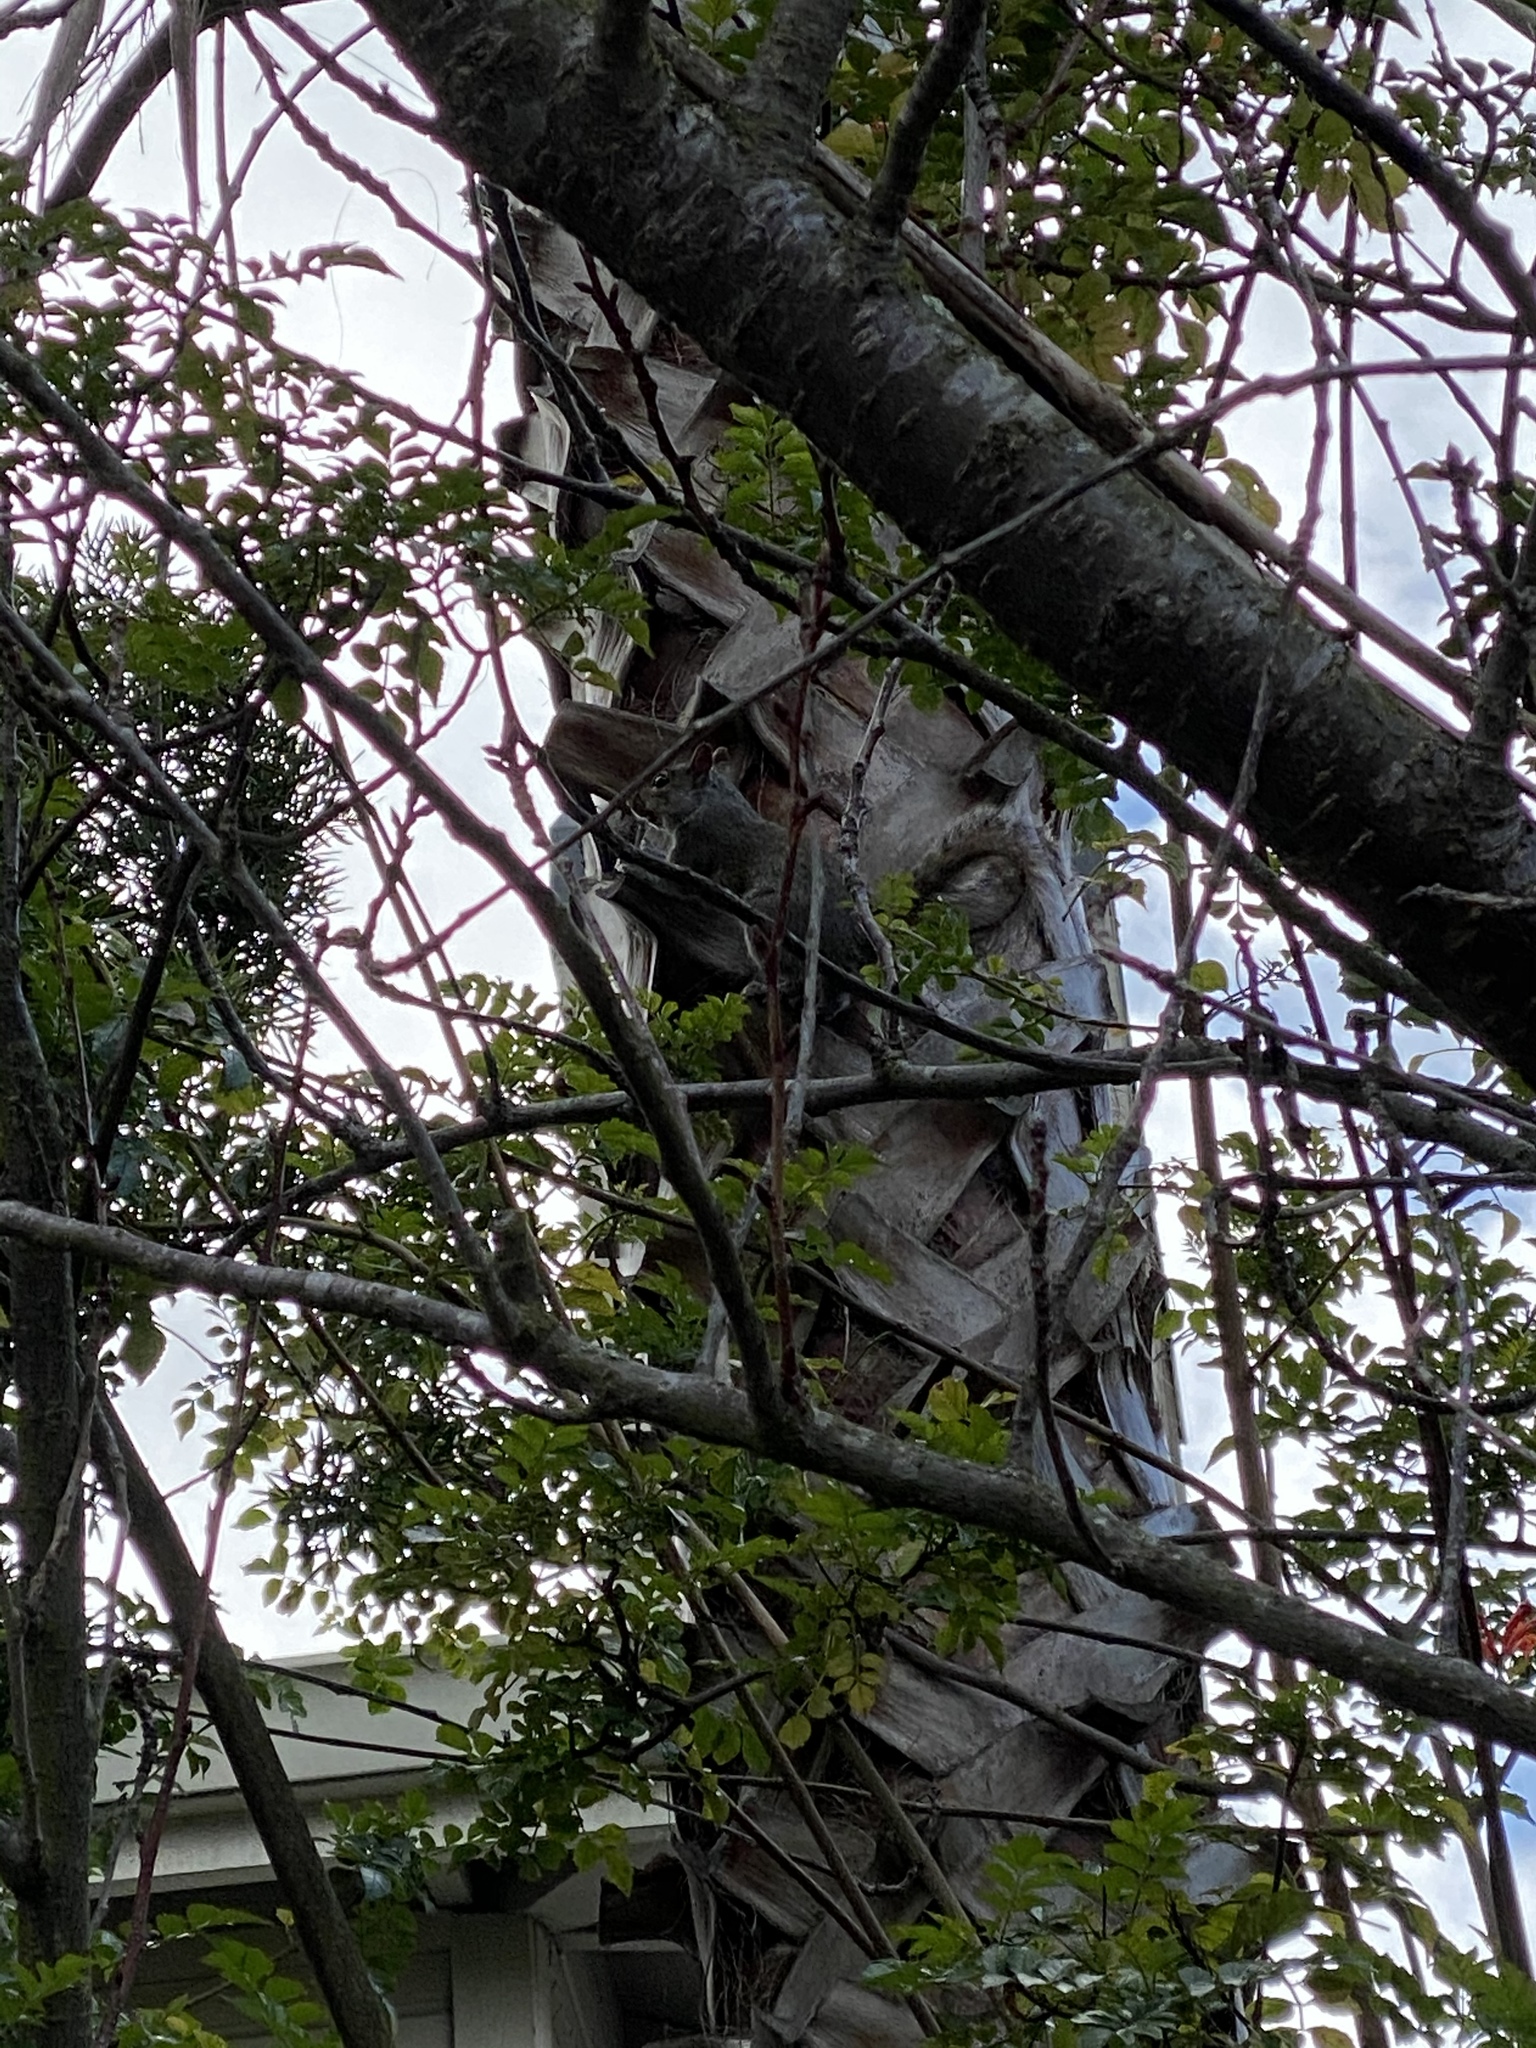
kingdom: Animalia
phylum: Chordata
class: Mammalia
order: Rodentia
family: Sciuridae
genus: Sciurus
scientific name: Sciurus carolinensis
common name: Eastern gray squirrel
